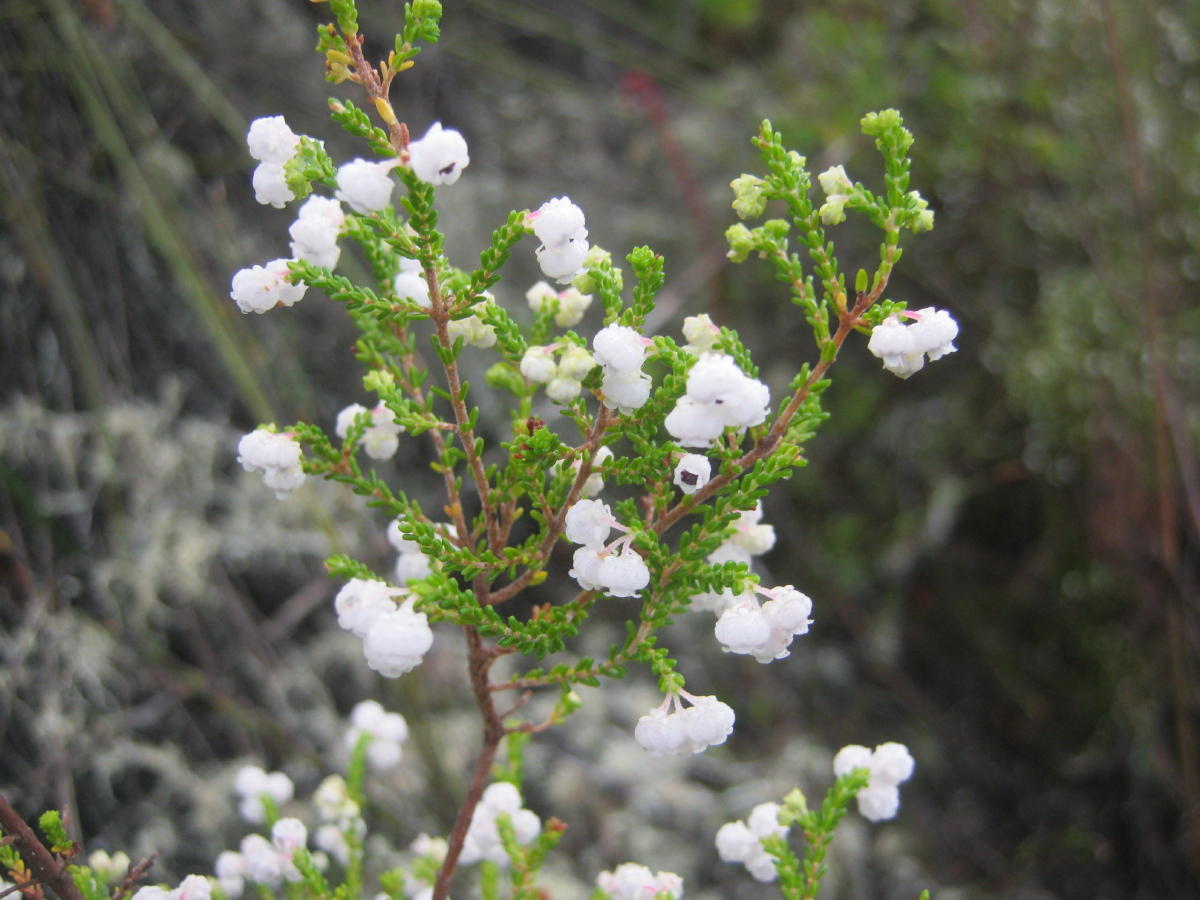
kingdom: Plantae
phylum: Tracheophyta
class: Magnoliopsida
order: Ericales
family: Ericaceae
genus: Erica
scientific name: Erica formosa
